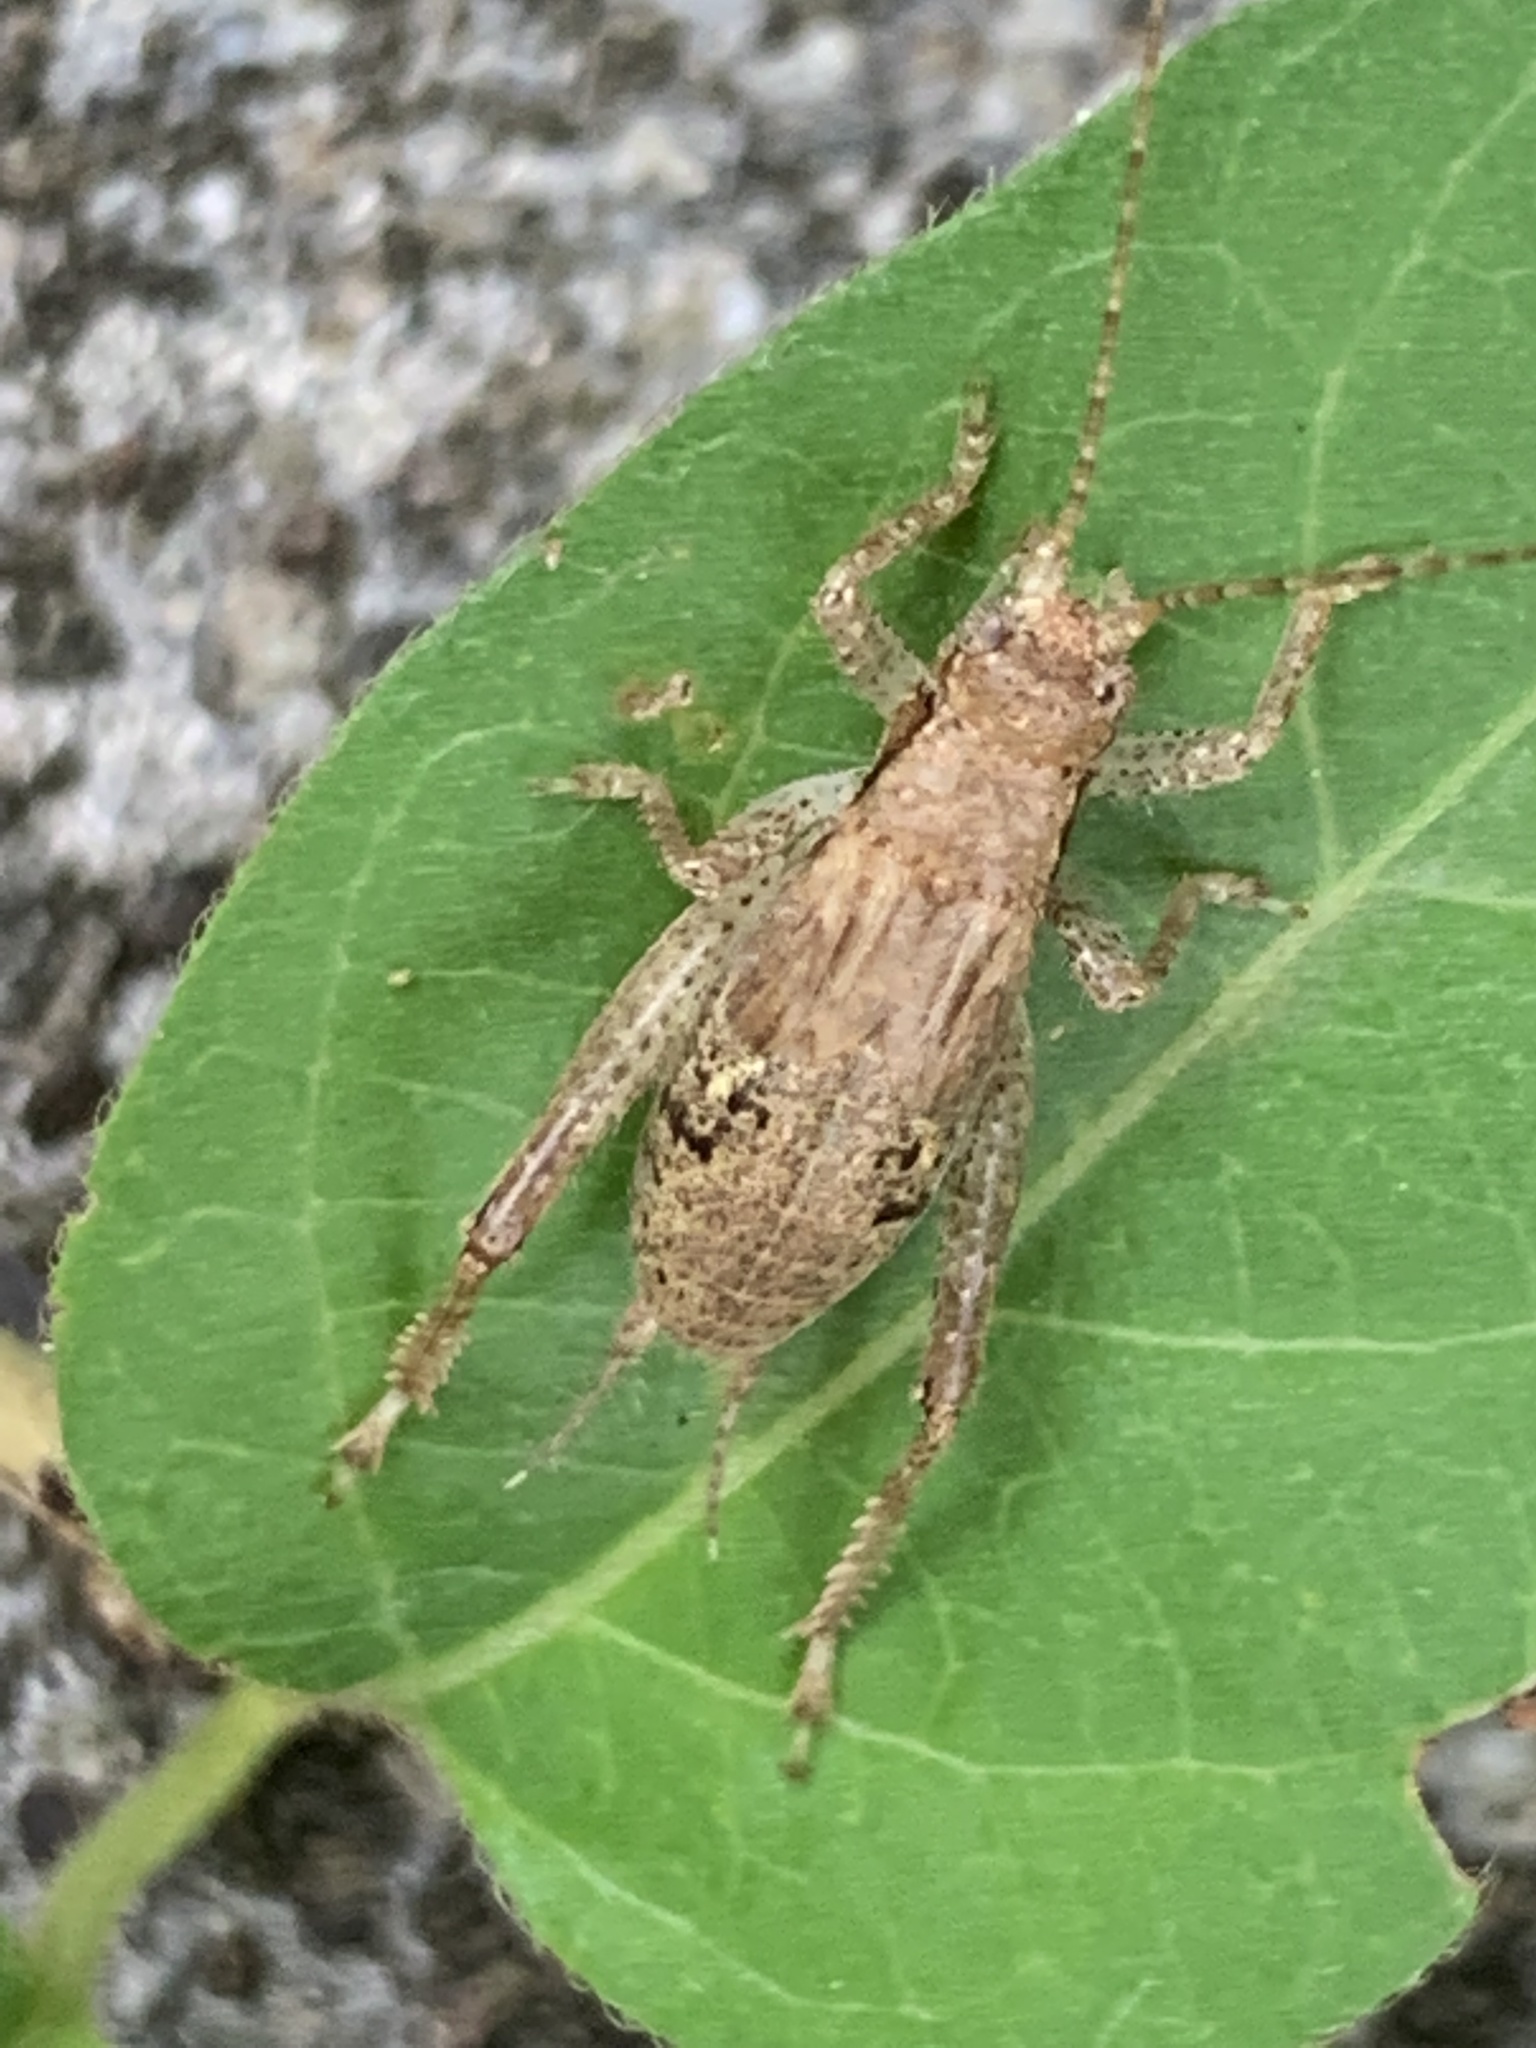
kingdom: Animalia
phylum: Arthropoda
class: Insecta
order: Orthoptera
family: Gryllidae
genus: Hapithus
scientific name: Hapithus saltator
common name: Jumping bush cricket
